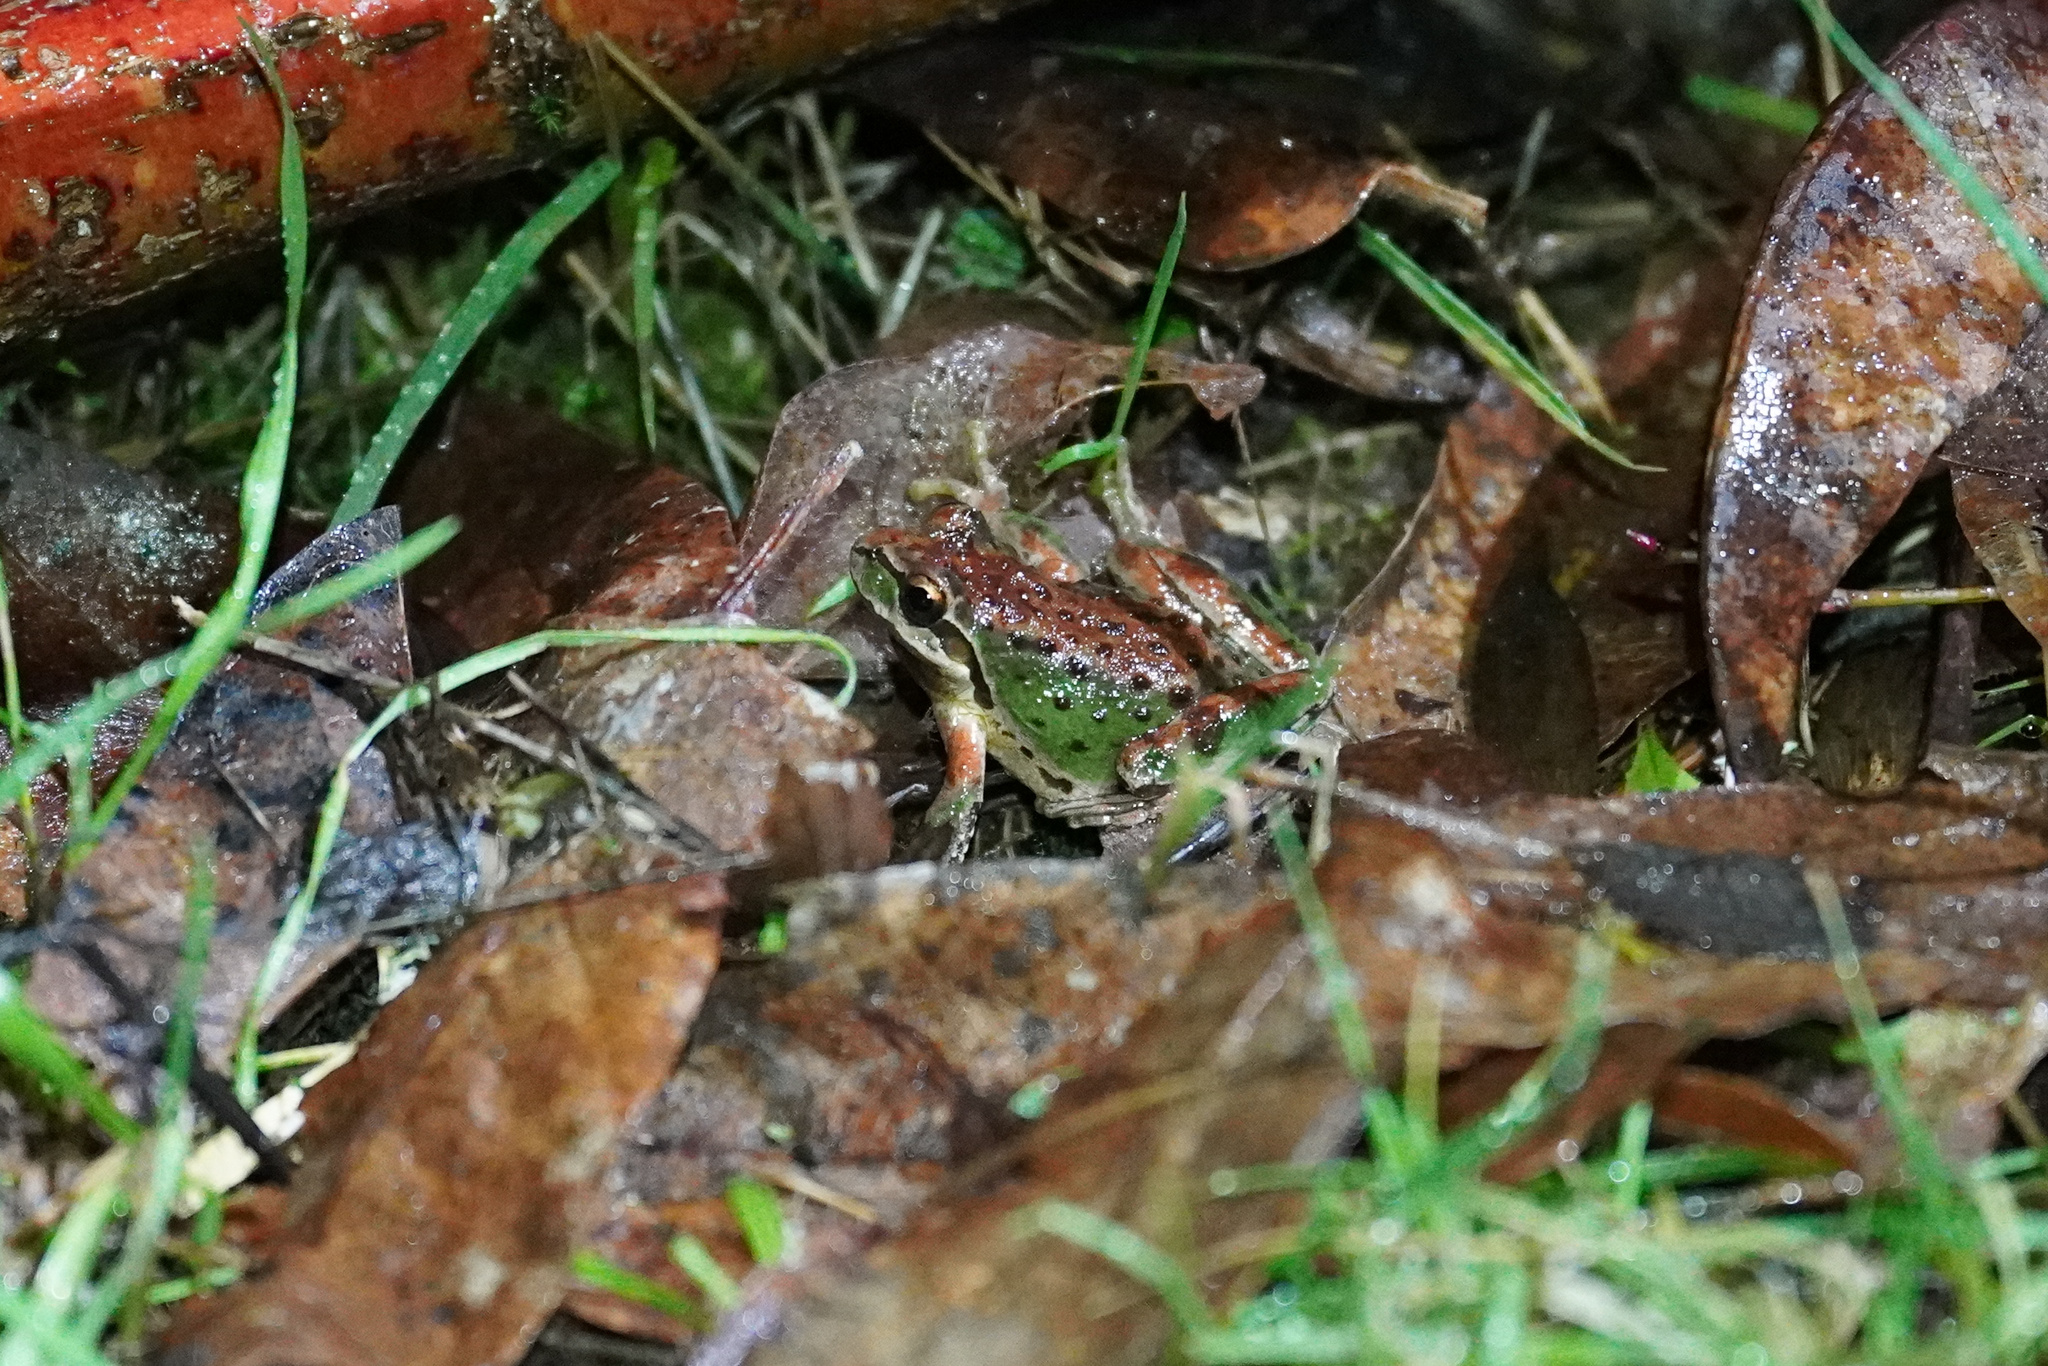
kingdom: Animalia
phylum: Chordata
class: Amphibia
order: Anura
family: Hylidae
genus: Pseudacris
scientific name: Pseudacris regilla
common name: Pacific chorus frog
